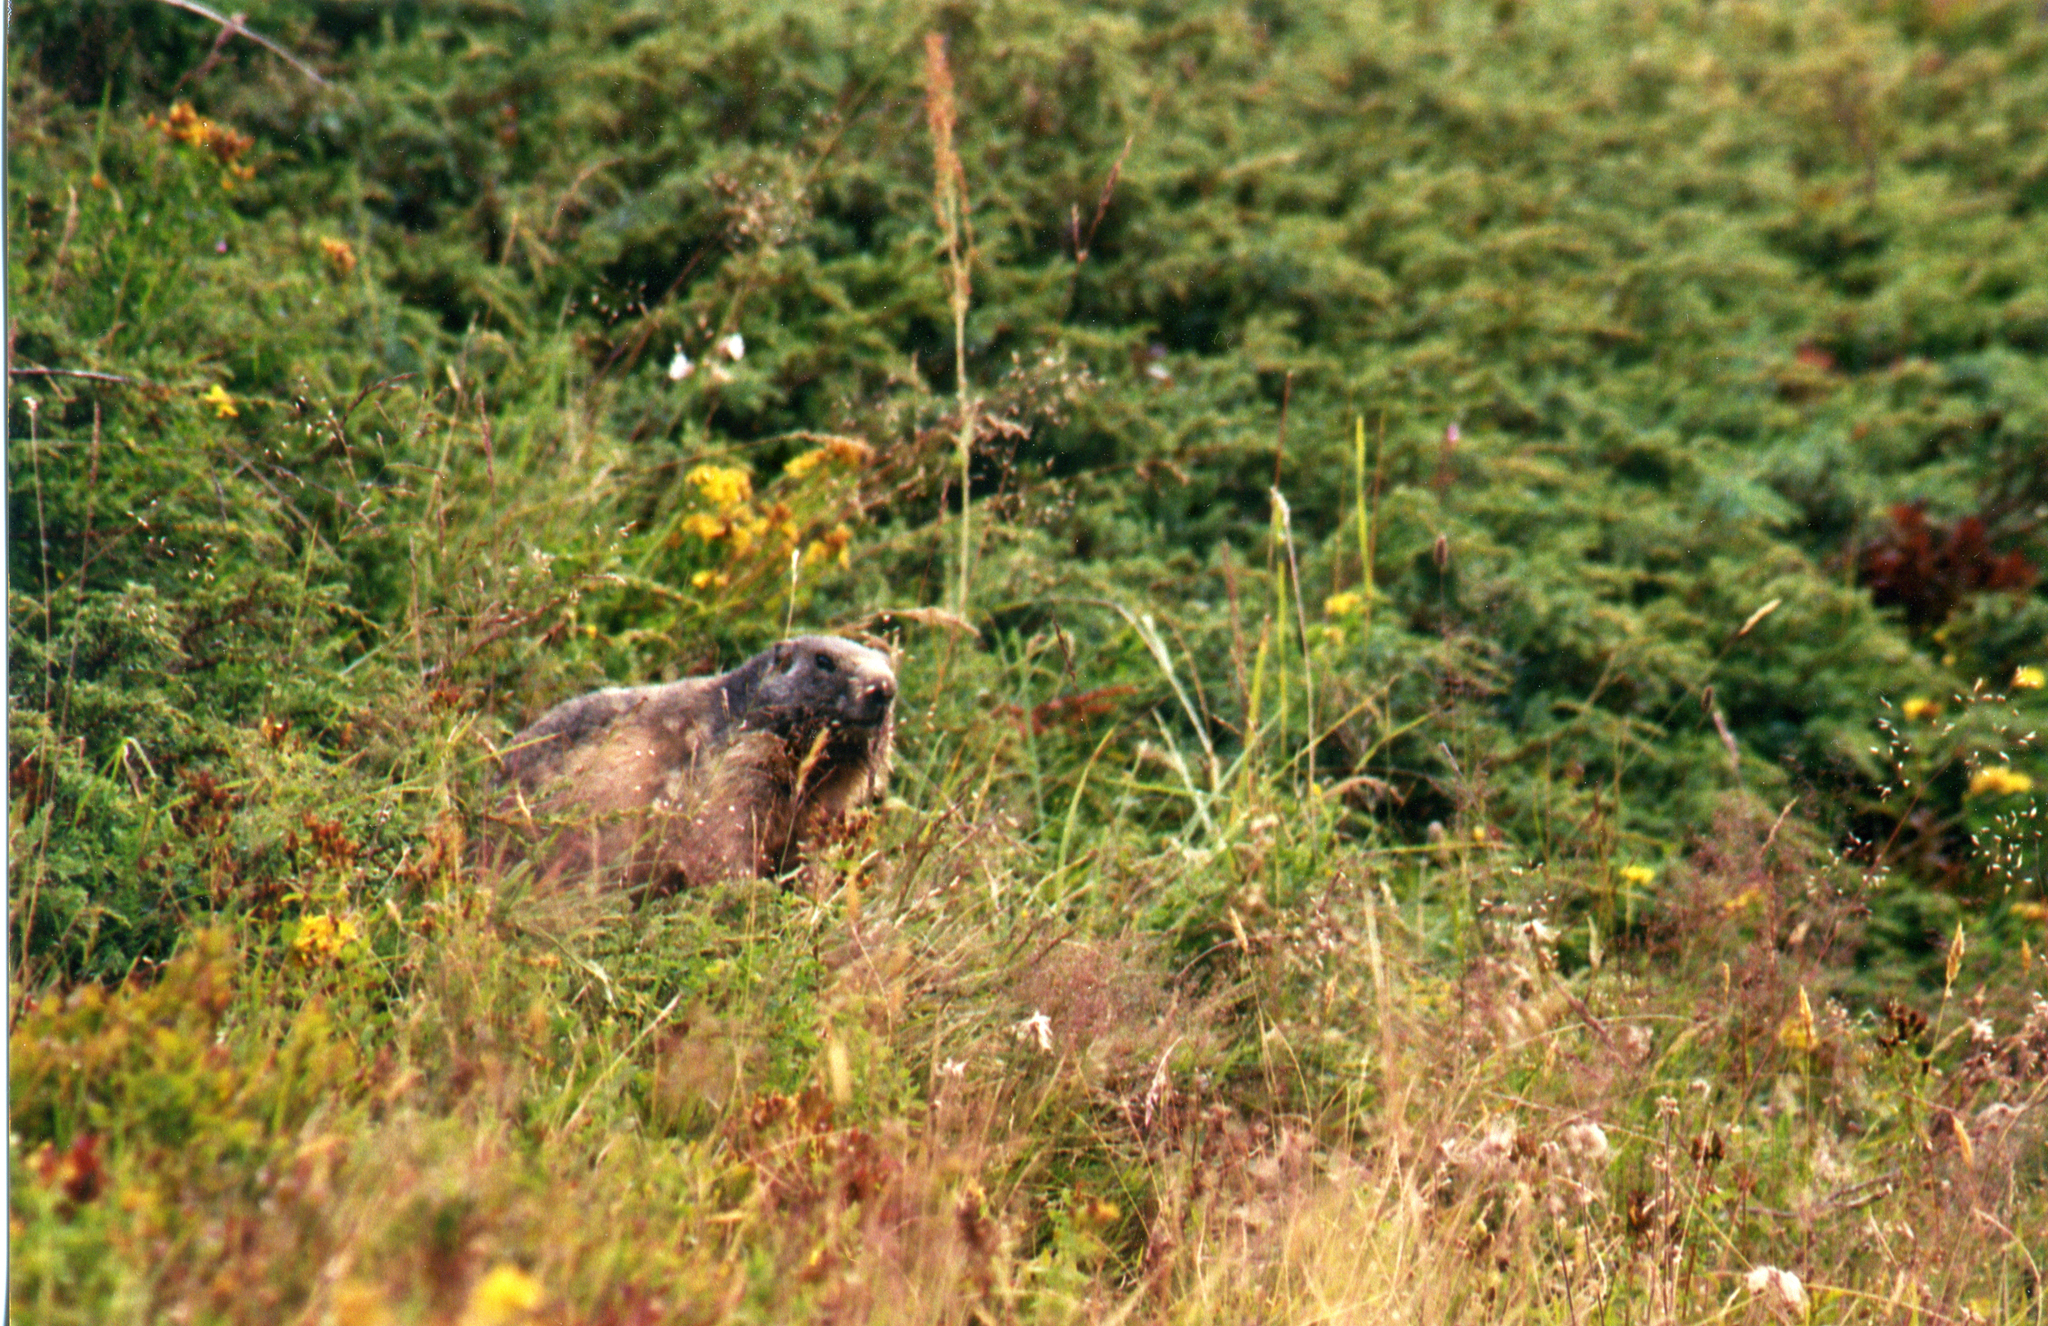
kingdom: Animalia
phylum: Chordata
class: Mammalia
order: Rodentia
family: Sciuridae
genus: Marmota
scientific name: Marmota marmota
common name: Alpine marmot
